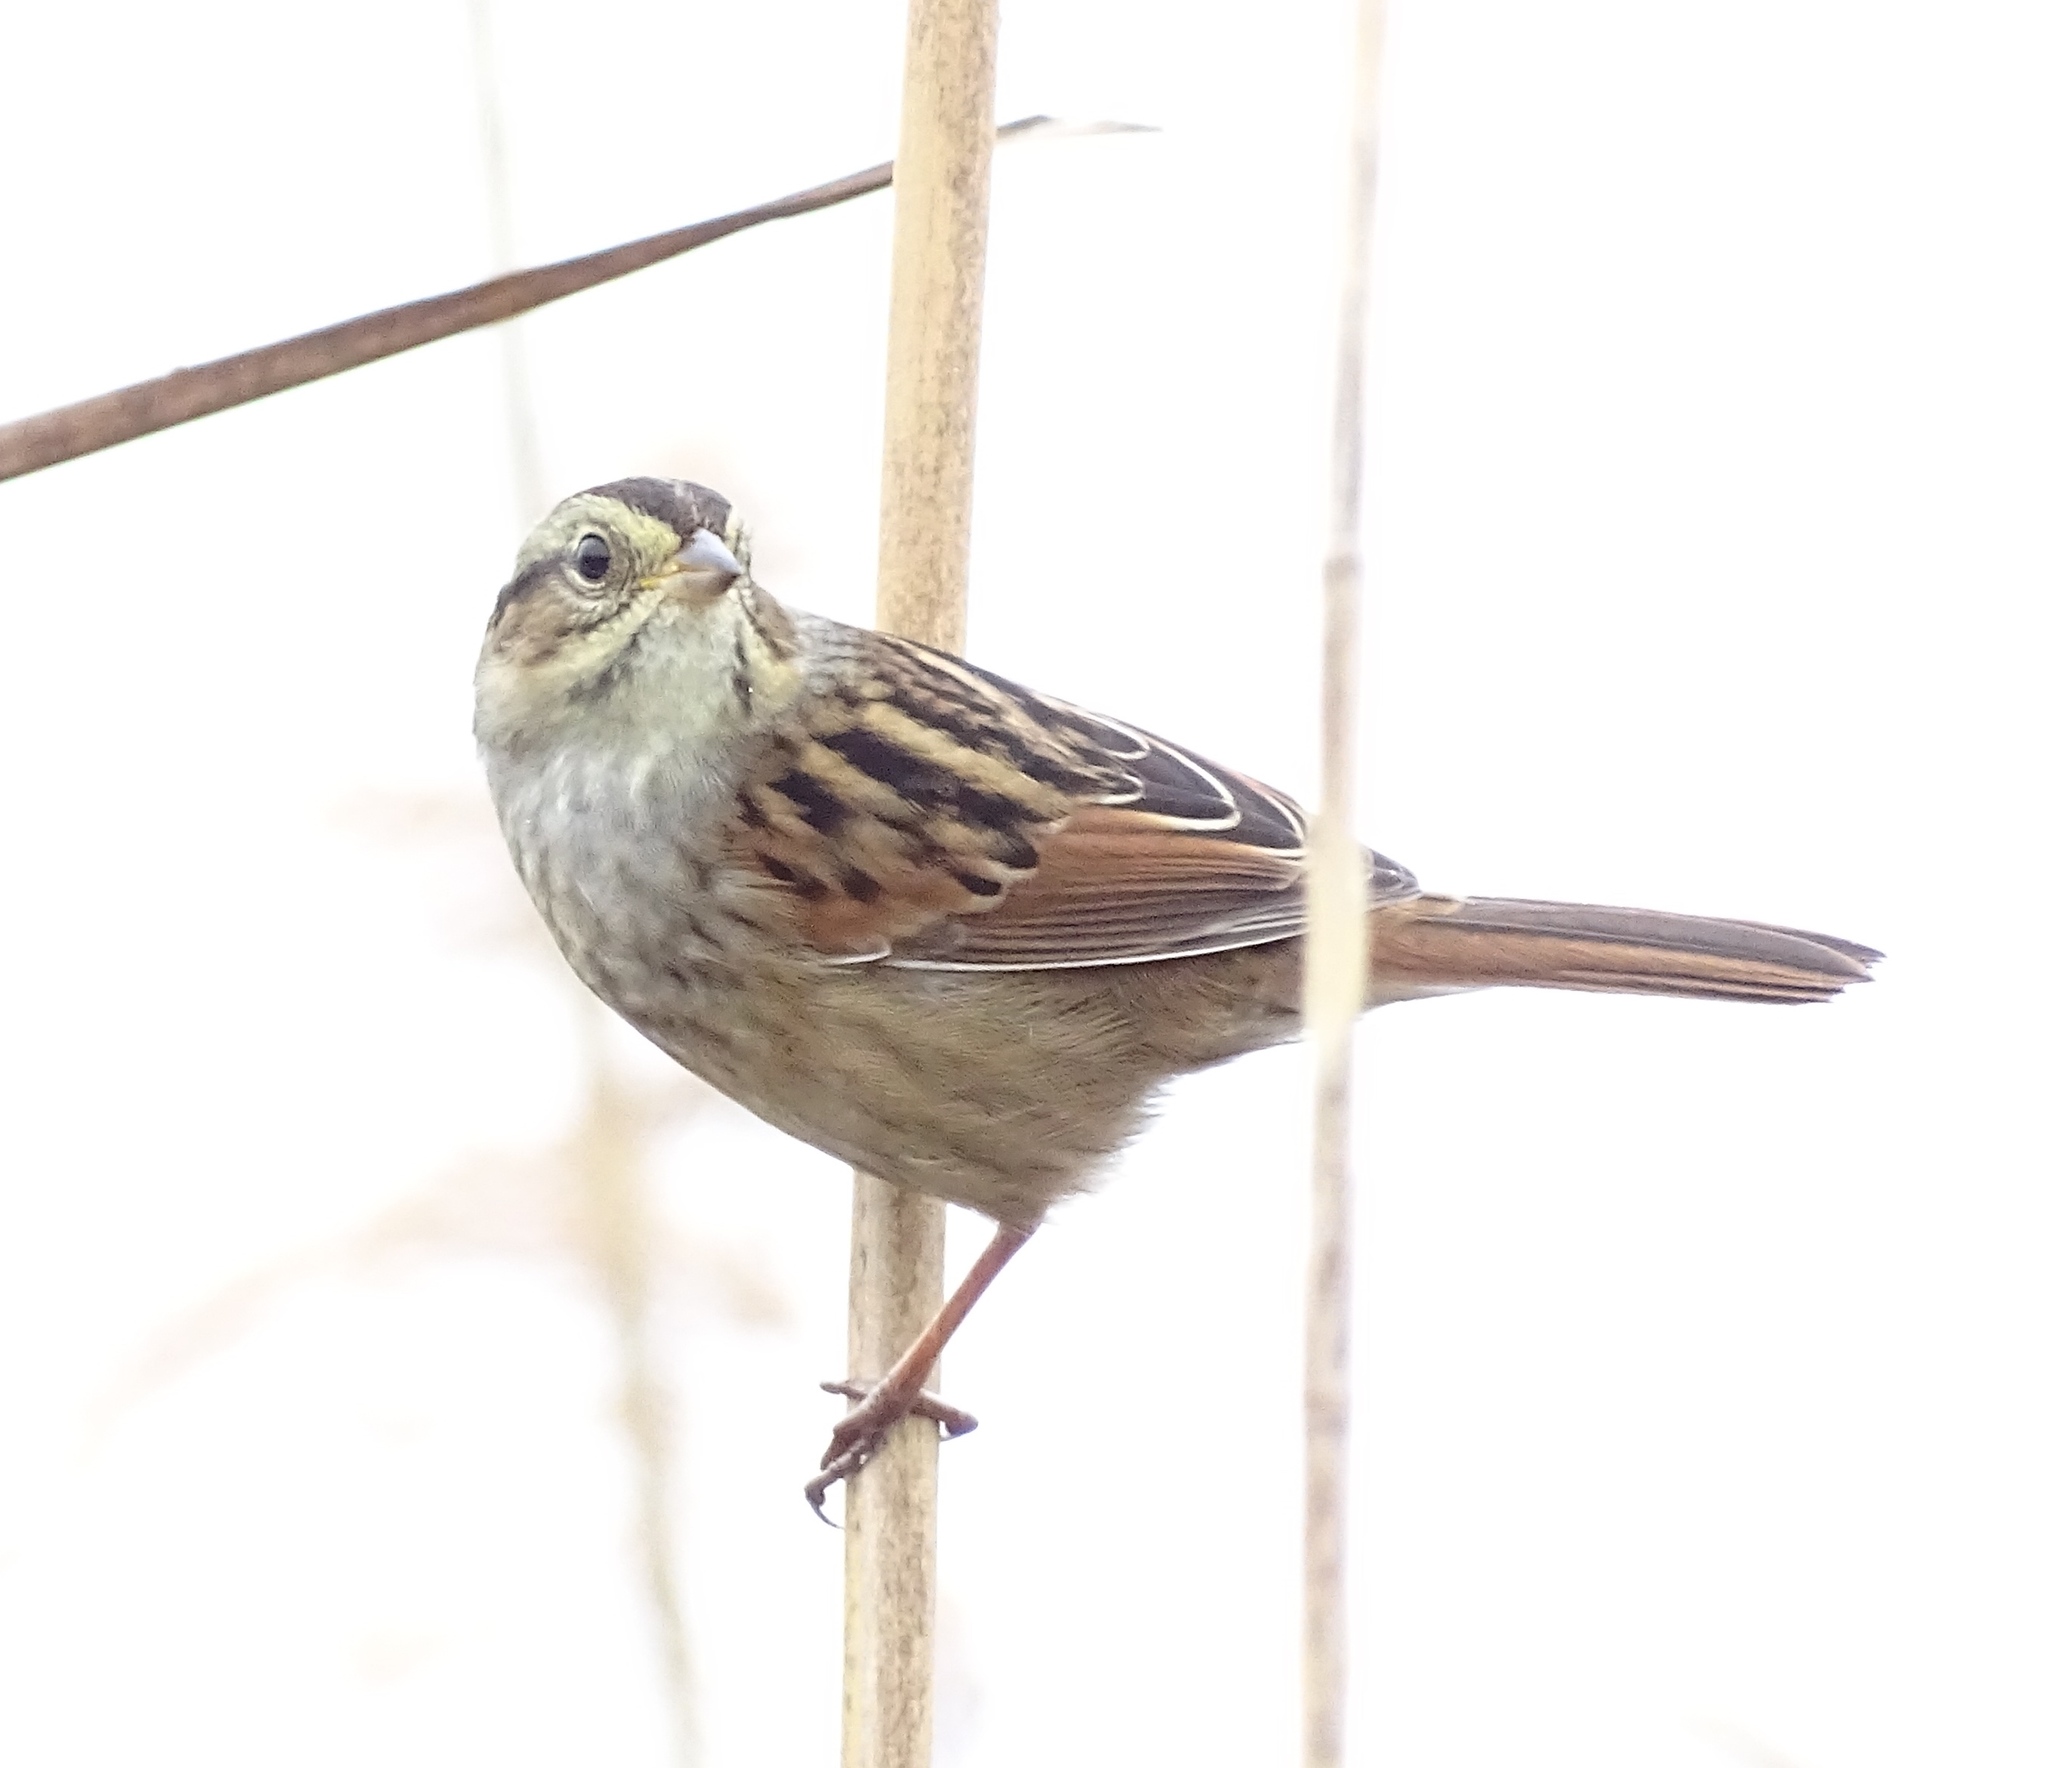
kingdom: Animalia
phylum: Chordata
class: Aves
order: Passeriformes
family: Passerellidae
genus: Melospiza
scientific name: Melospiza georgiana
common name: Swamp sparrow
